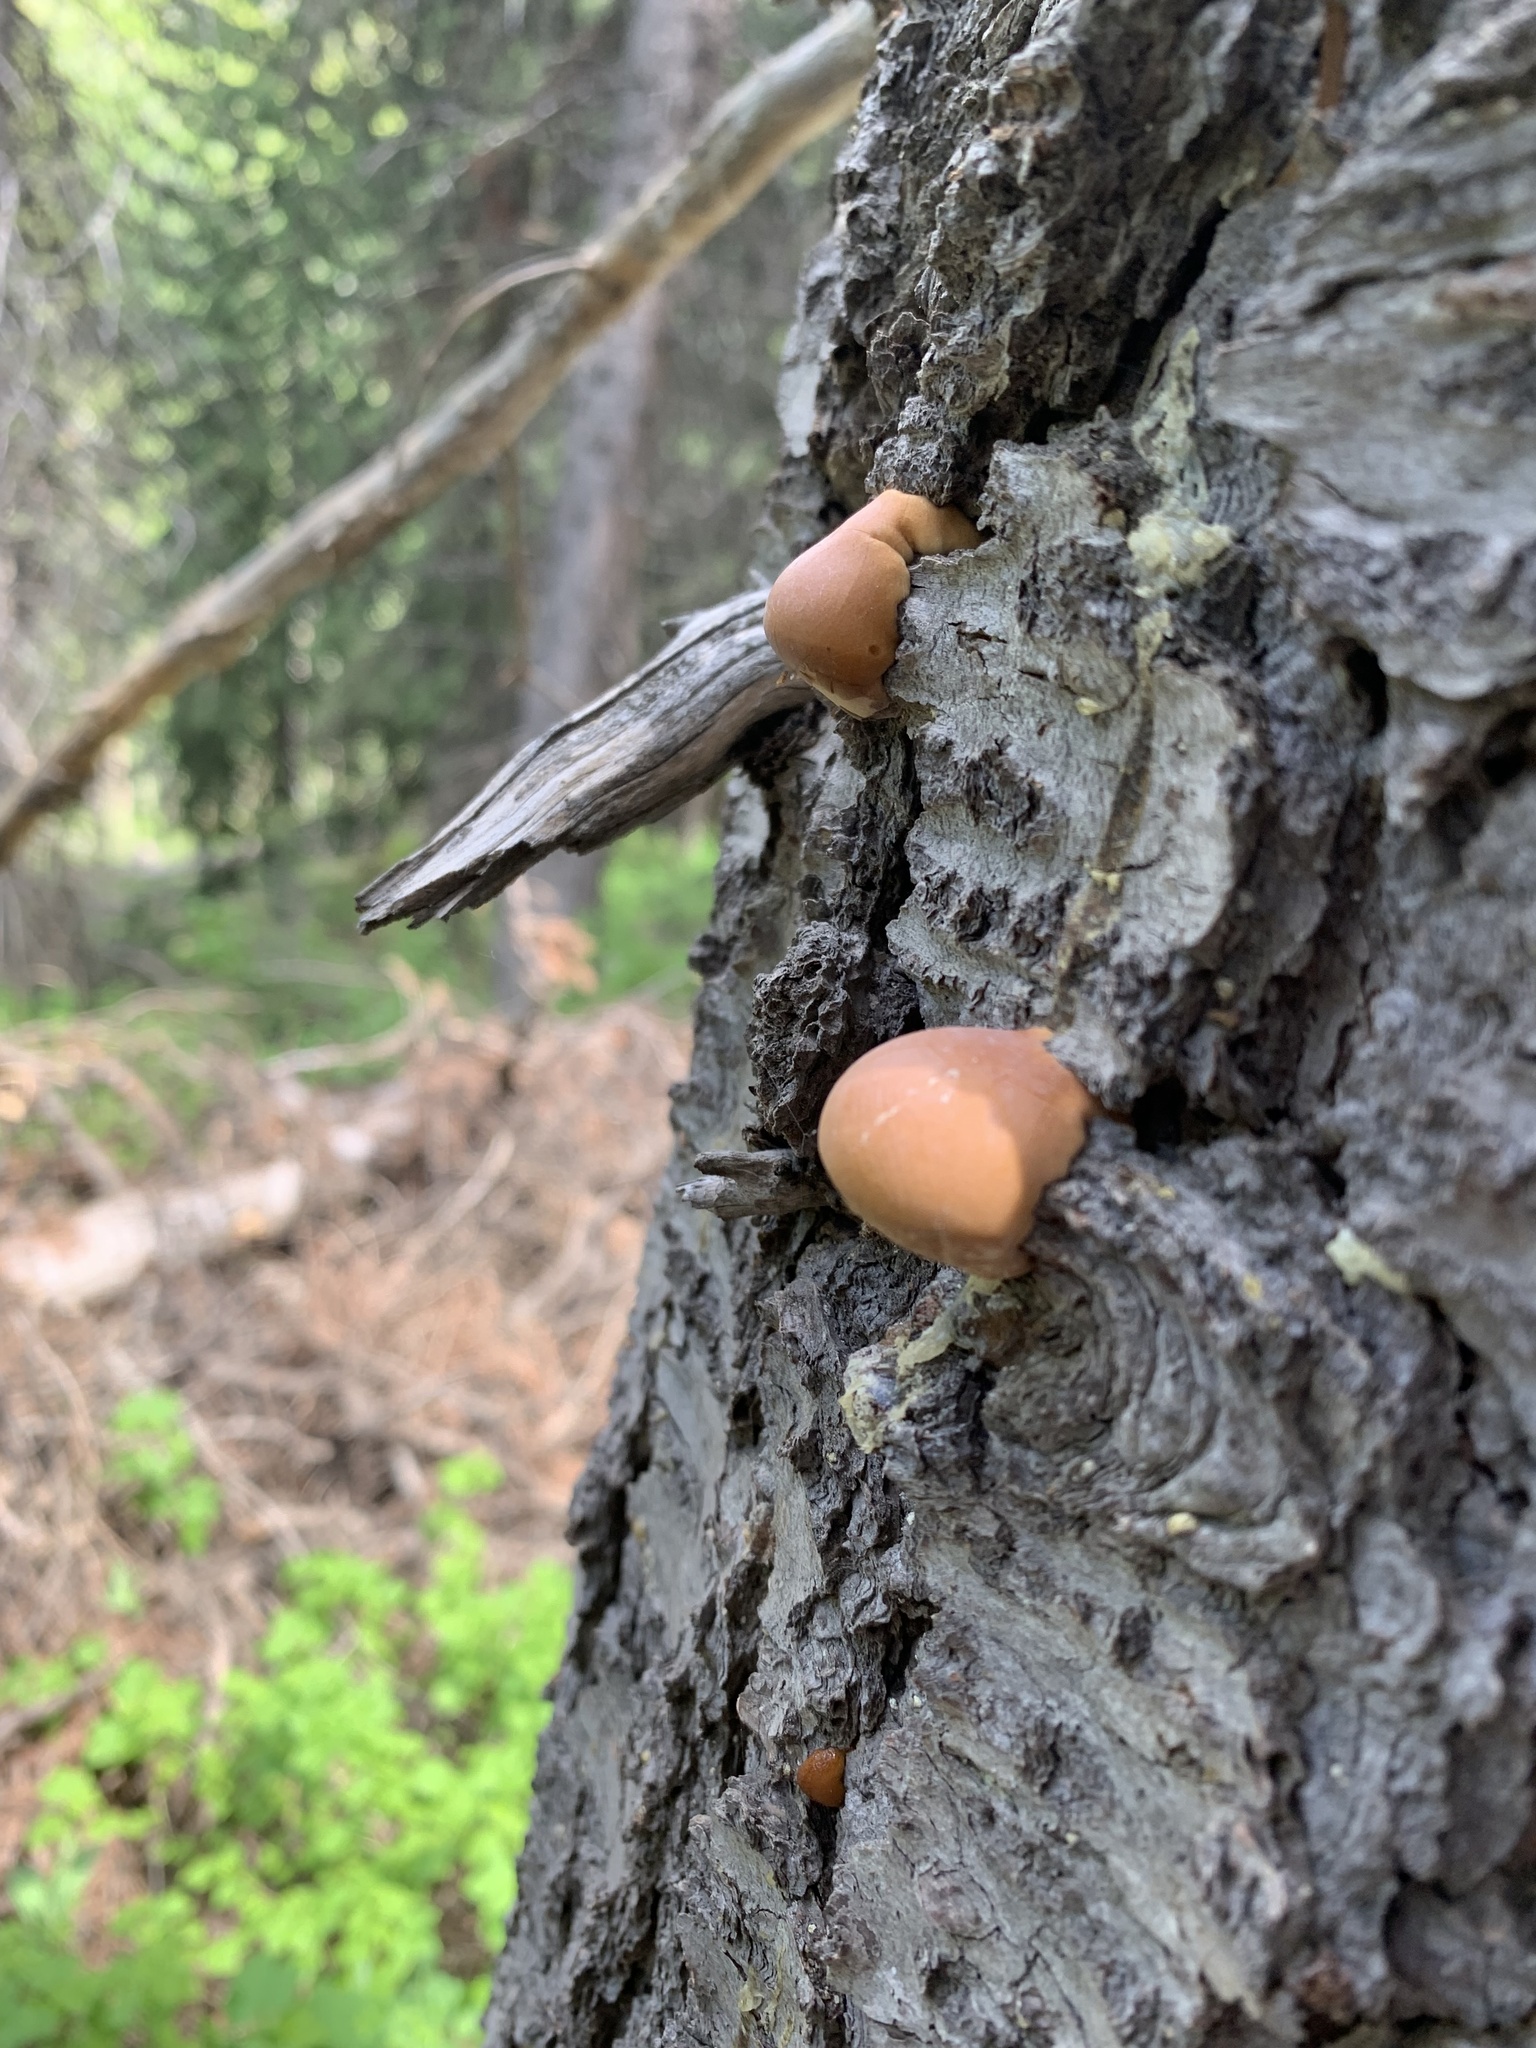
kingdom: Fungi
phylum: Basidiomycota
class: Agaricomycetes
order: Polyporales
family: Polyporaceae
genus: Cryptoporus
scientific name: Cryptoporus volvatus
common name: Veiled polypore
